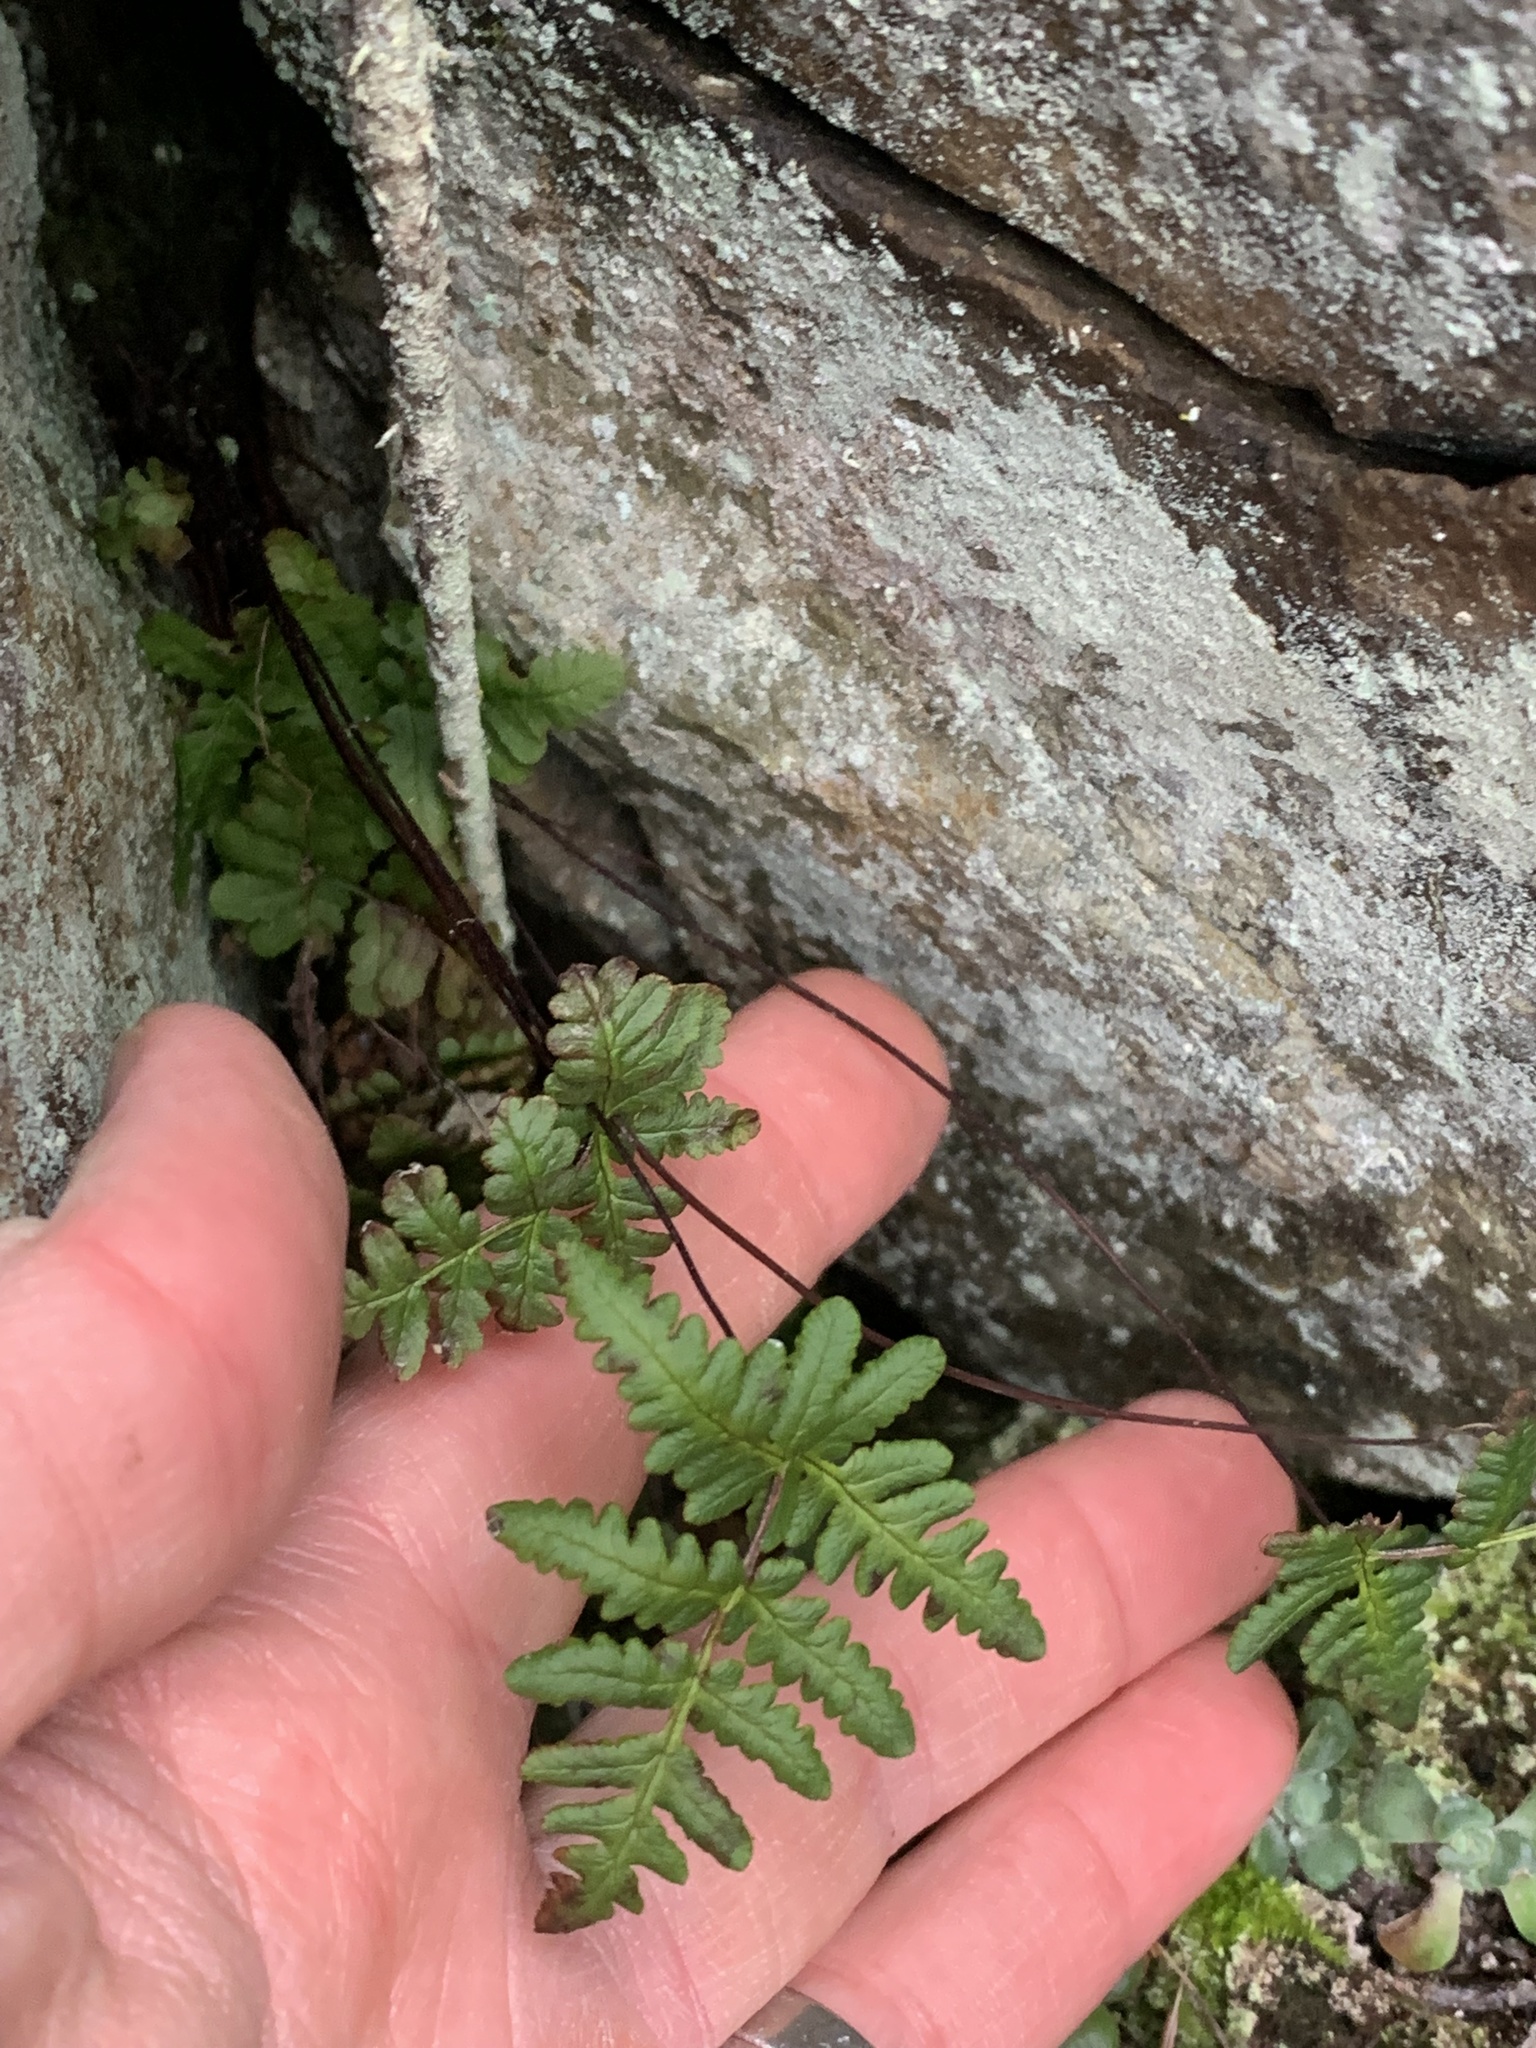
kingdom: Plantae
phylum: Tracheophyta
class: Polypodiopsida
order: Polypodiales
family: Pteridaceae
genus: Pentagramma
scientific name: Pentagramma triangularis
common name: Gold fern
